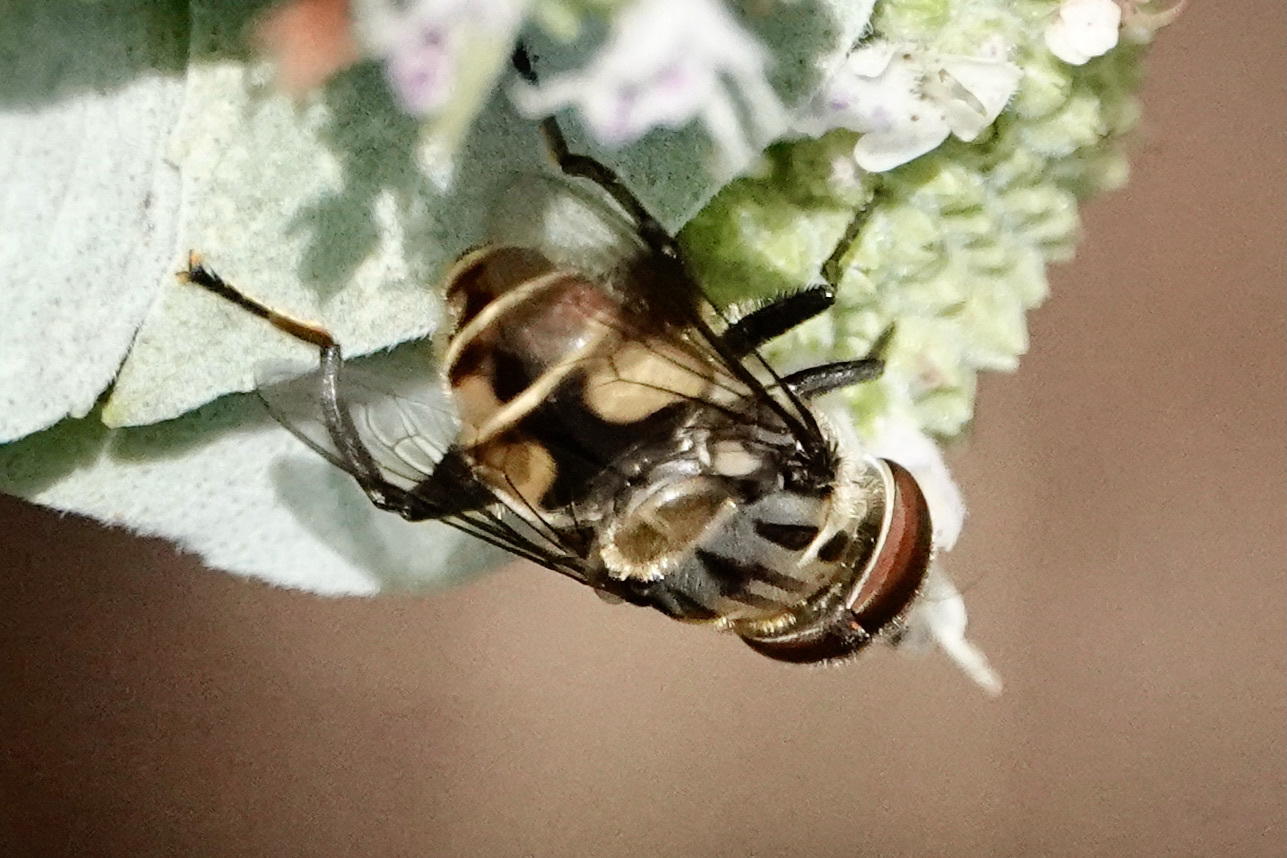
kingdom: Animalia
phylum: Arthropoda
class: Insecta
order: Diptera
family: Syrphidae
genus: Palpada
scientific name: Palpada furcata
